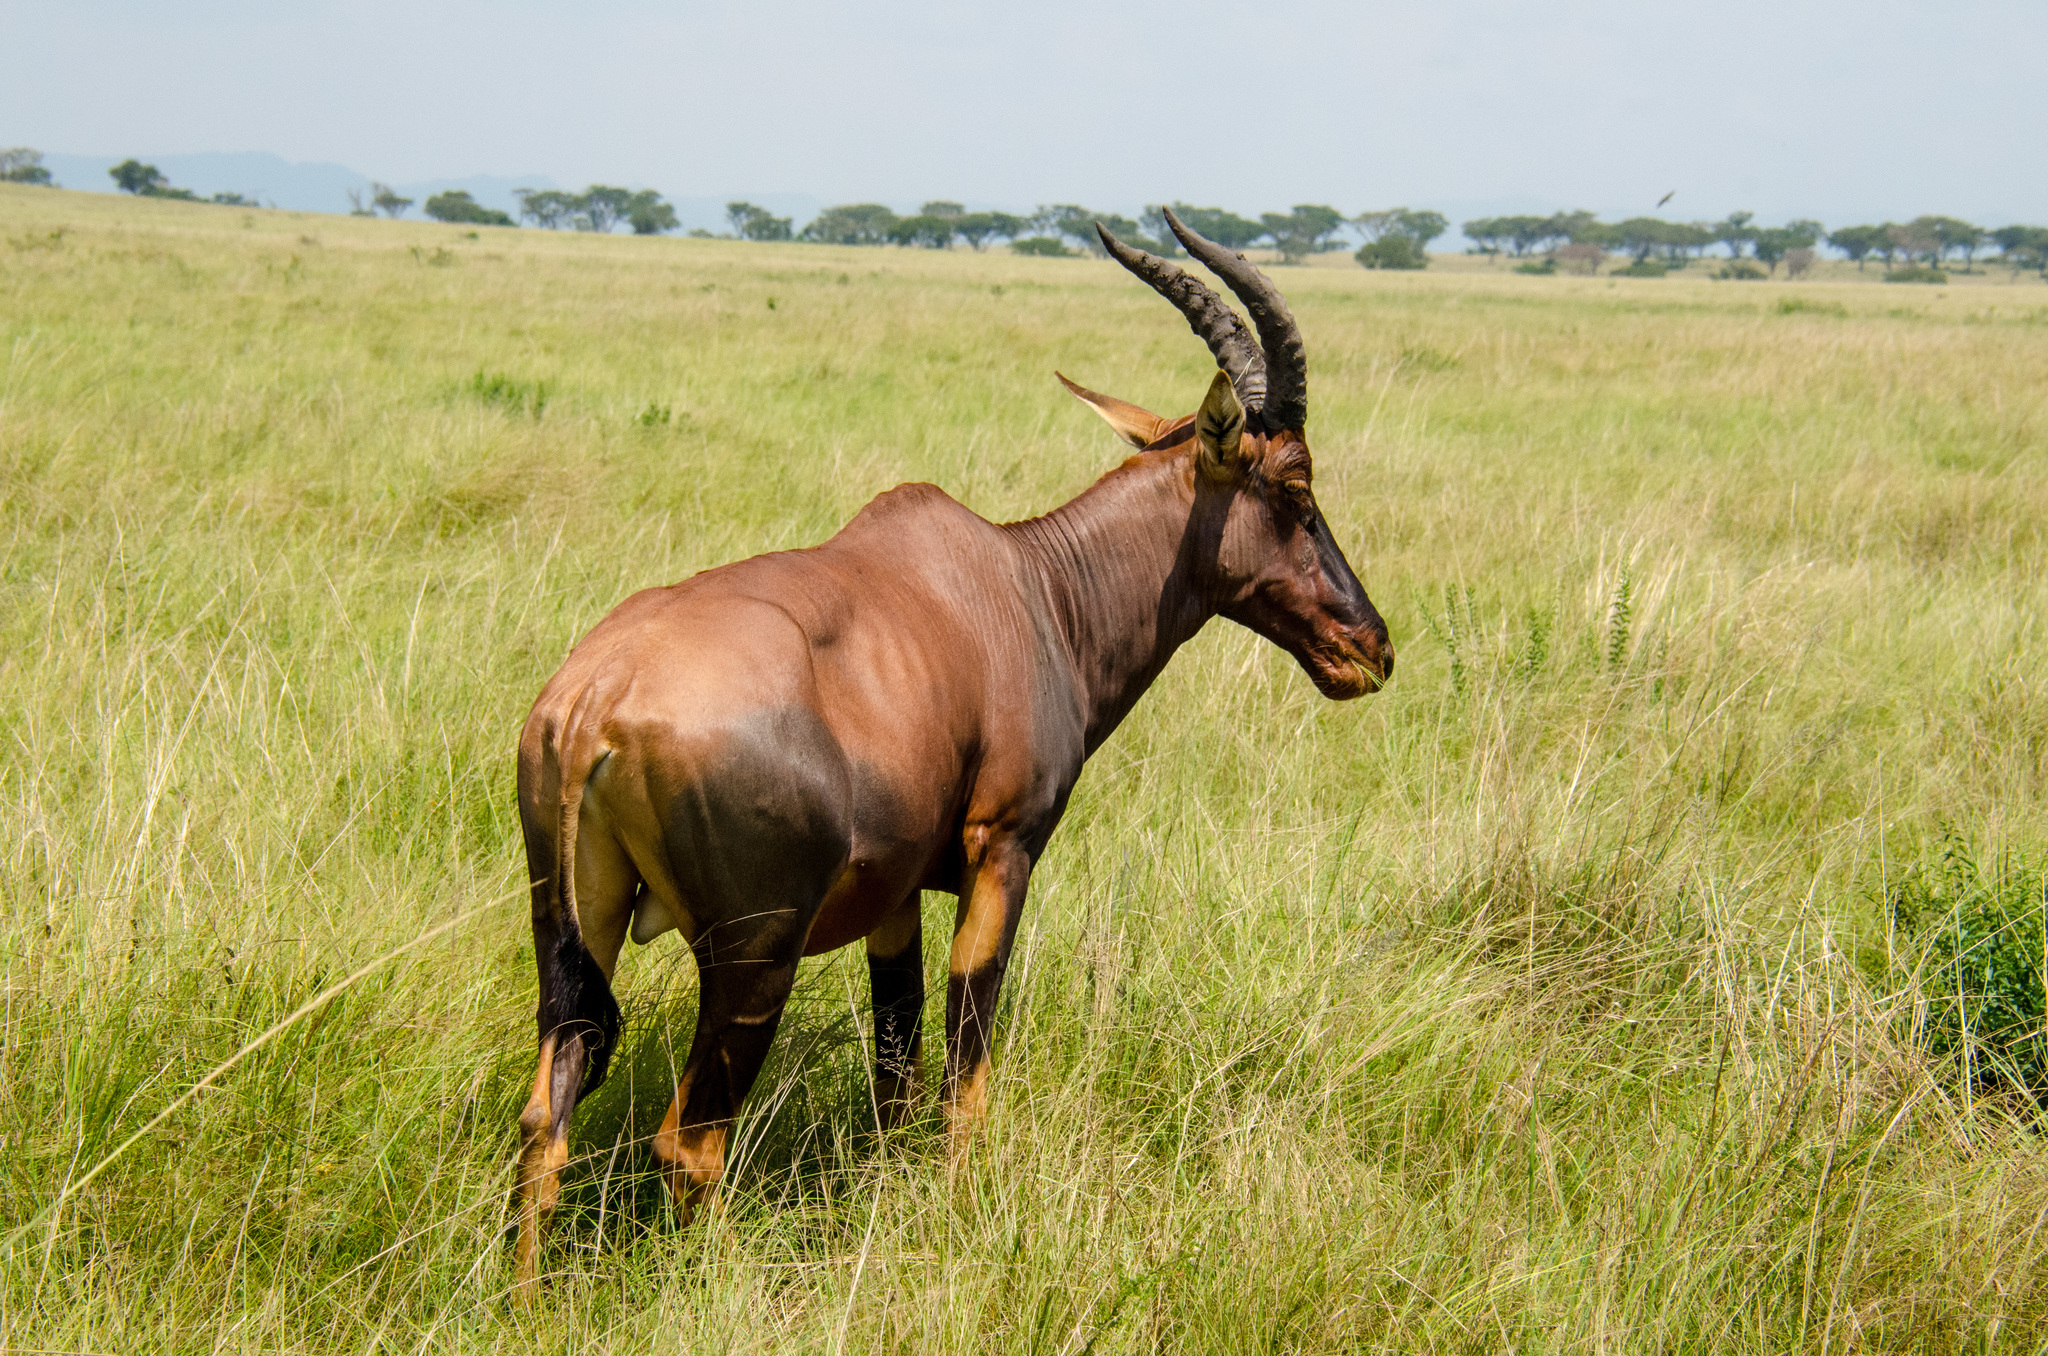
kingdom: Animalia
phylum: Chordata
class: Mammalia
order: Artiodactyla
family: Bovidae
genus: Damaliscus
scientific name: Damaliscus korrigum
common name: Topi
